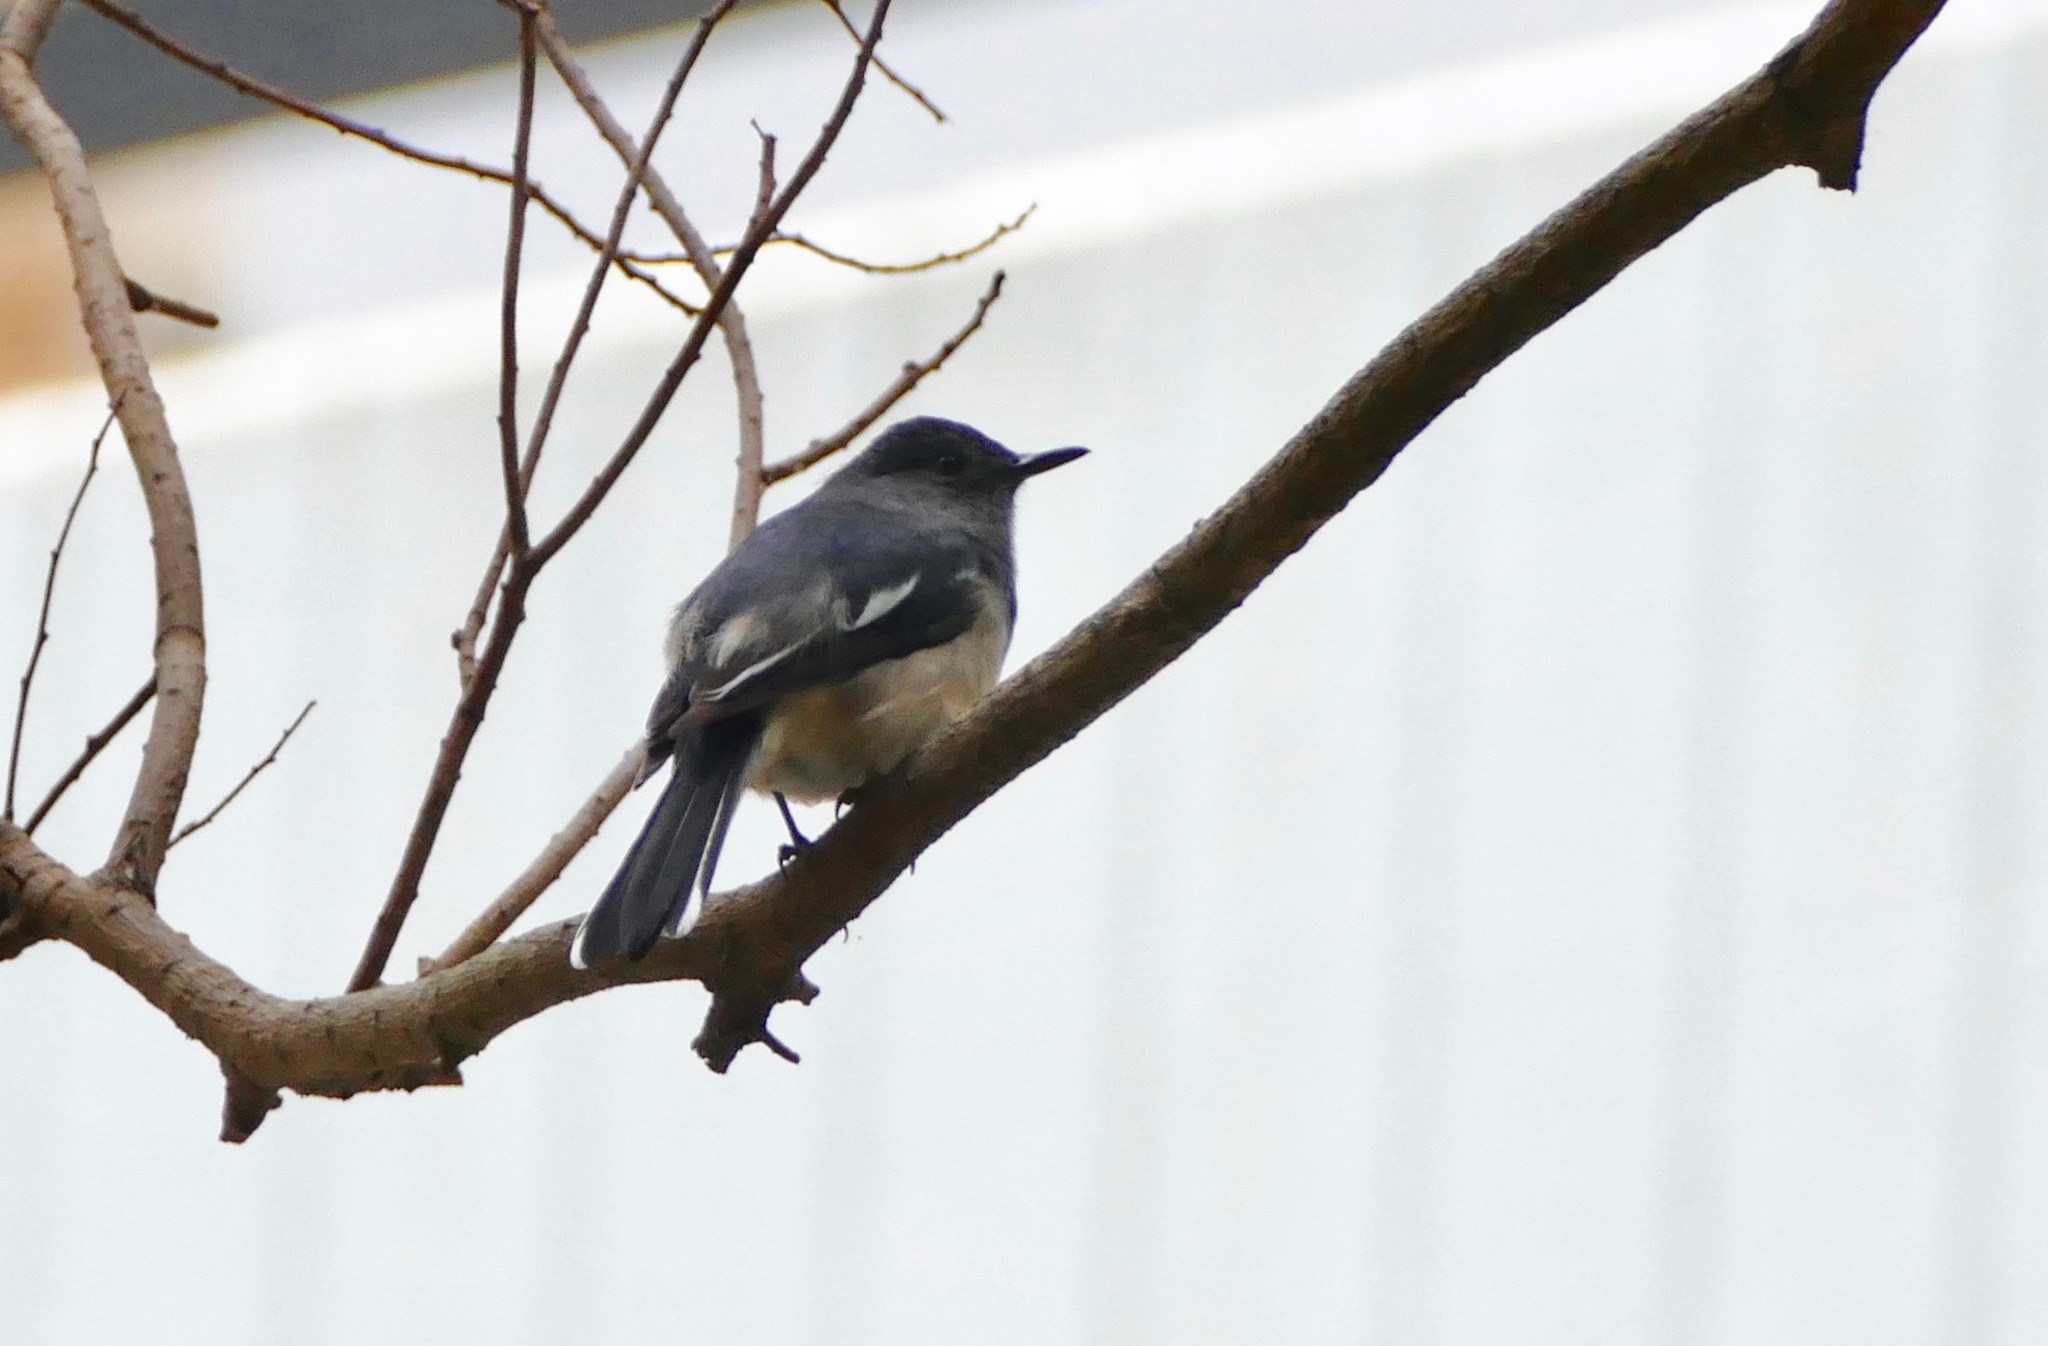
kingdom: Animalia
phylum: Chordata
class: Aves
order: Passeriformes
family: Muscicapidae
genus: Copsychus
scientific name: Copsychus saularis
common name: Oriental magpie-robin
